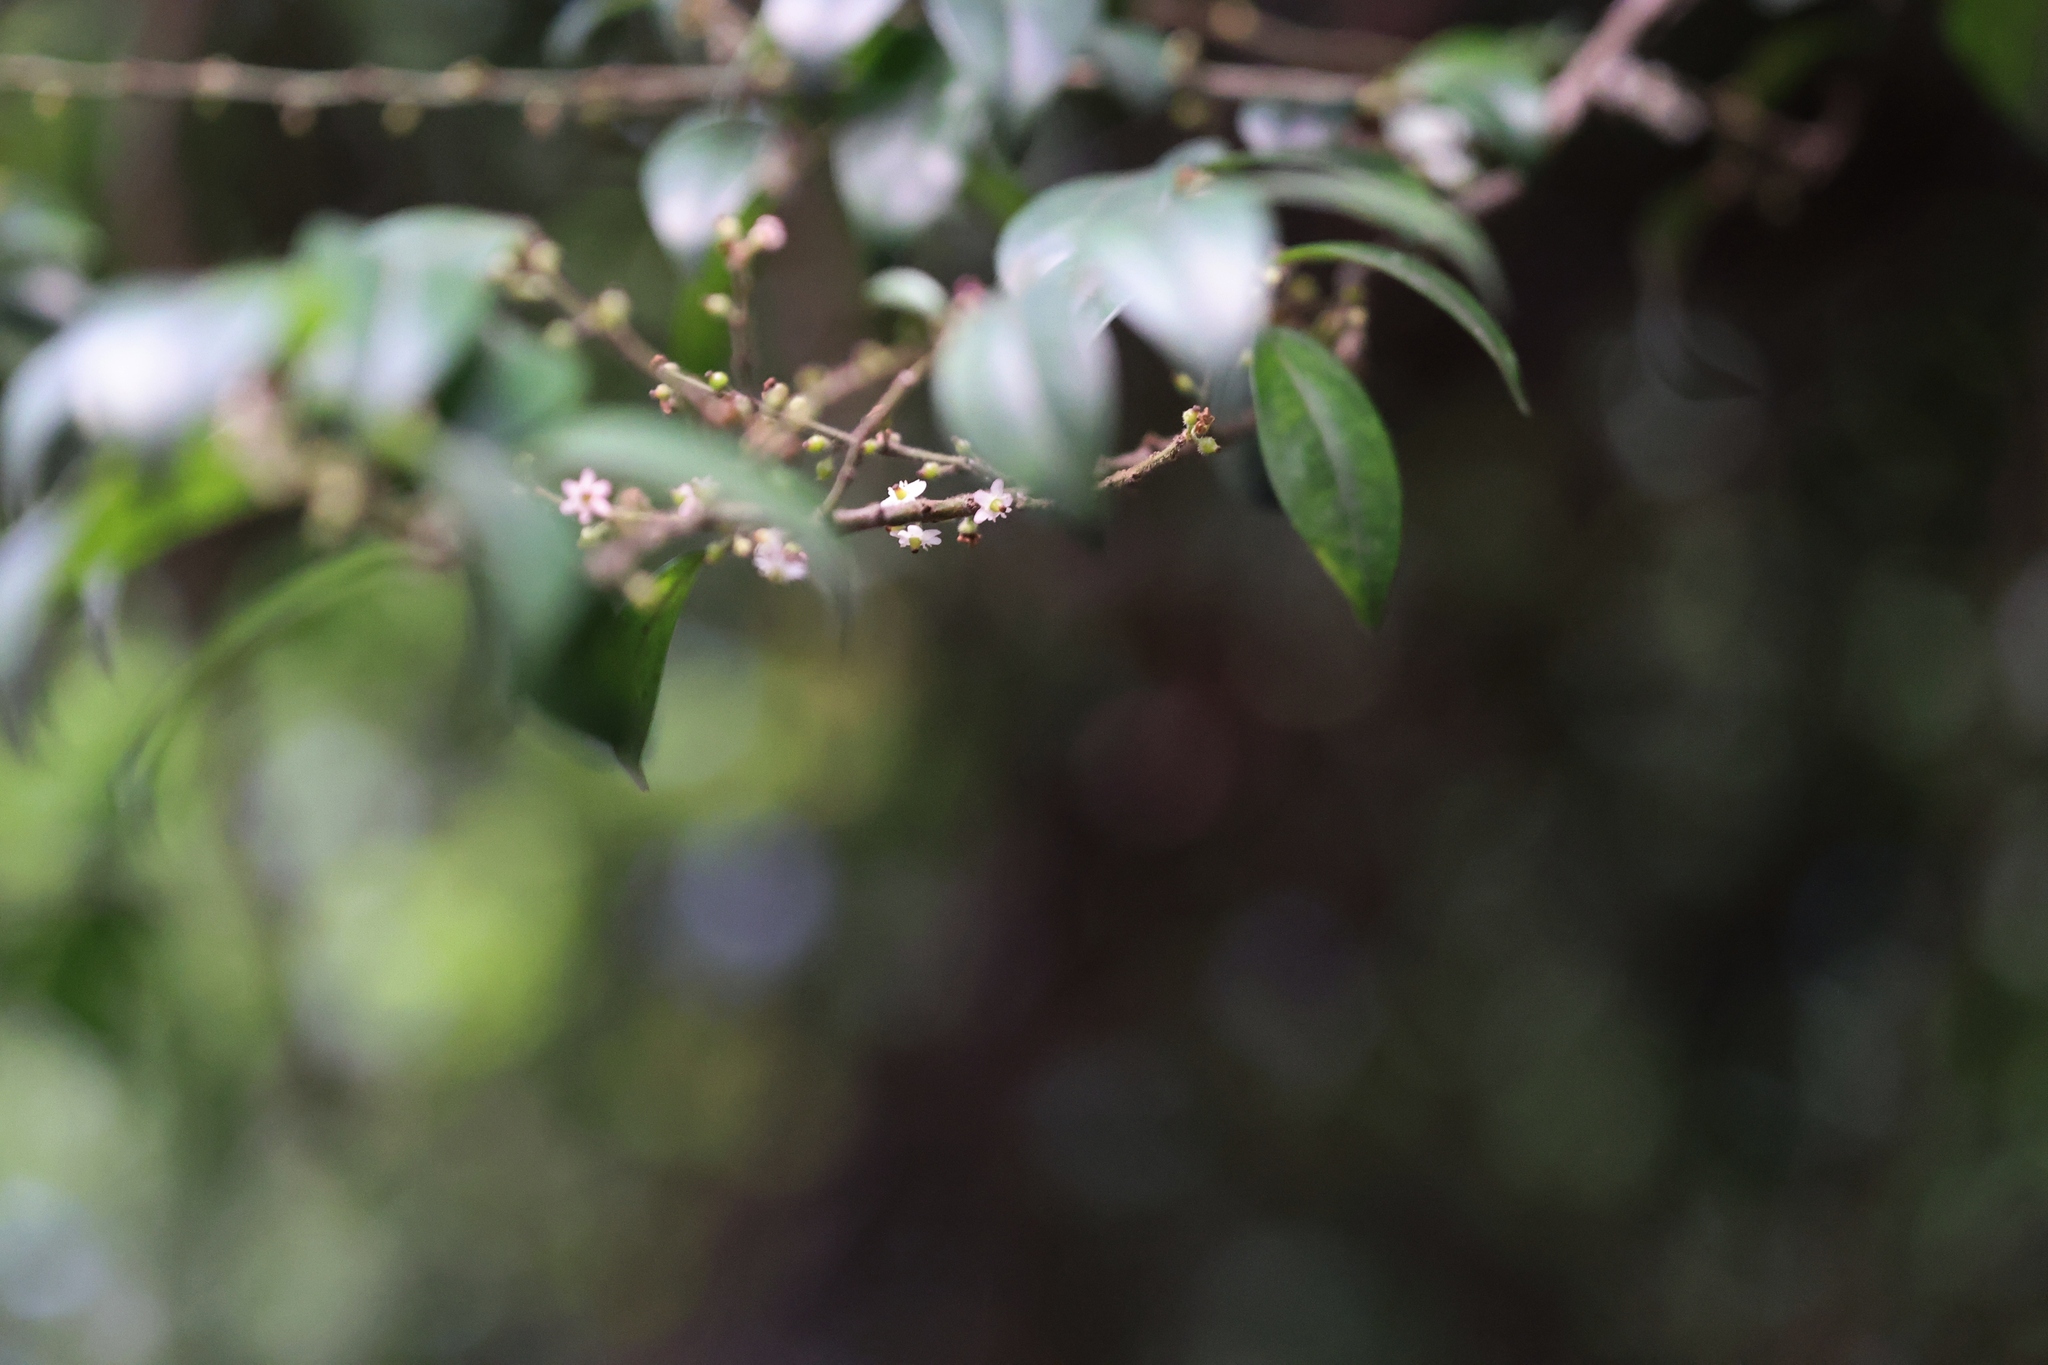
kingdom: Plantae
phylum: Tracheophyta
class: Magnoliopsida
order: Aquifoliales
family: Aquifoliaceae
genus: Ilex
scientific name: Ilex pubescens
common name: Pubescent holly
